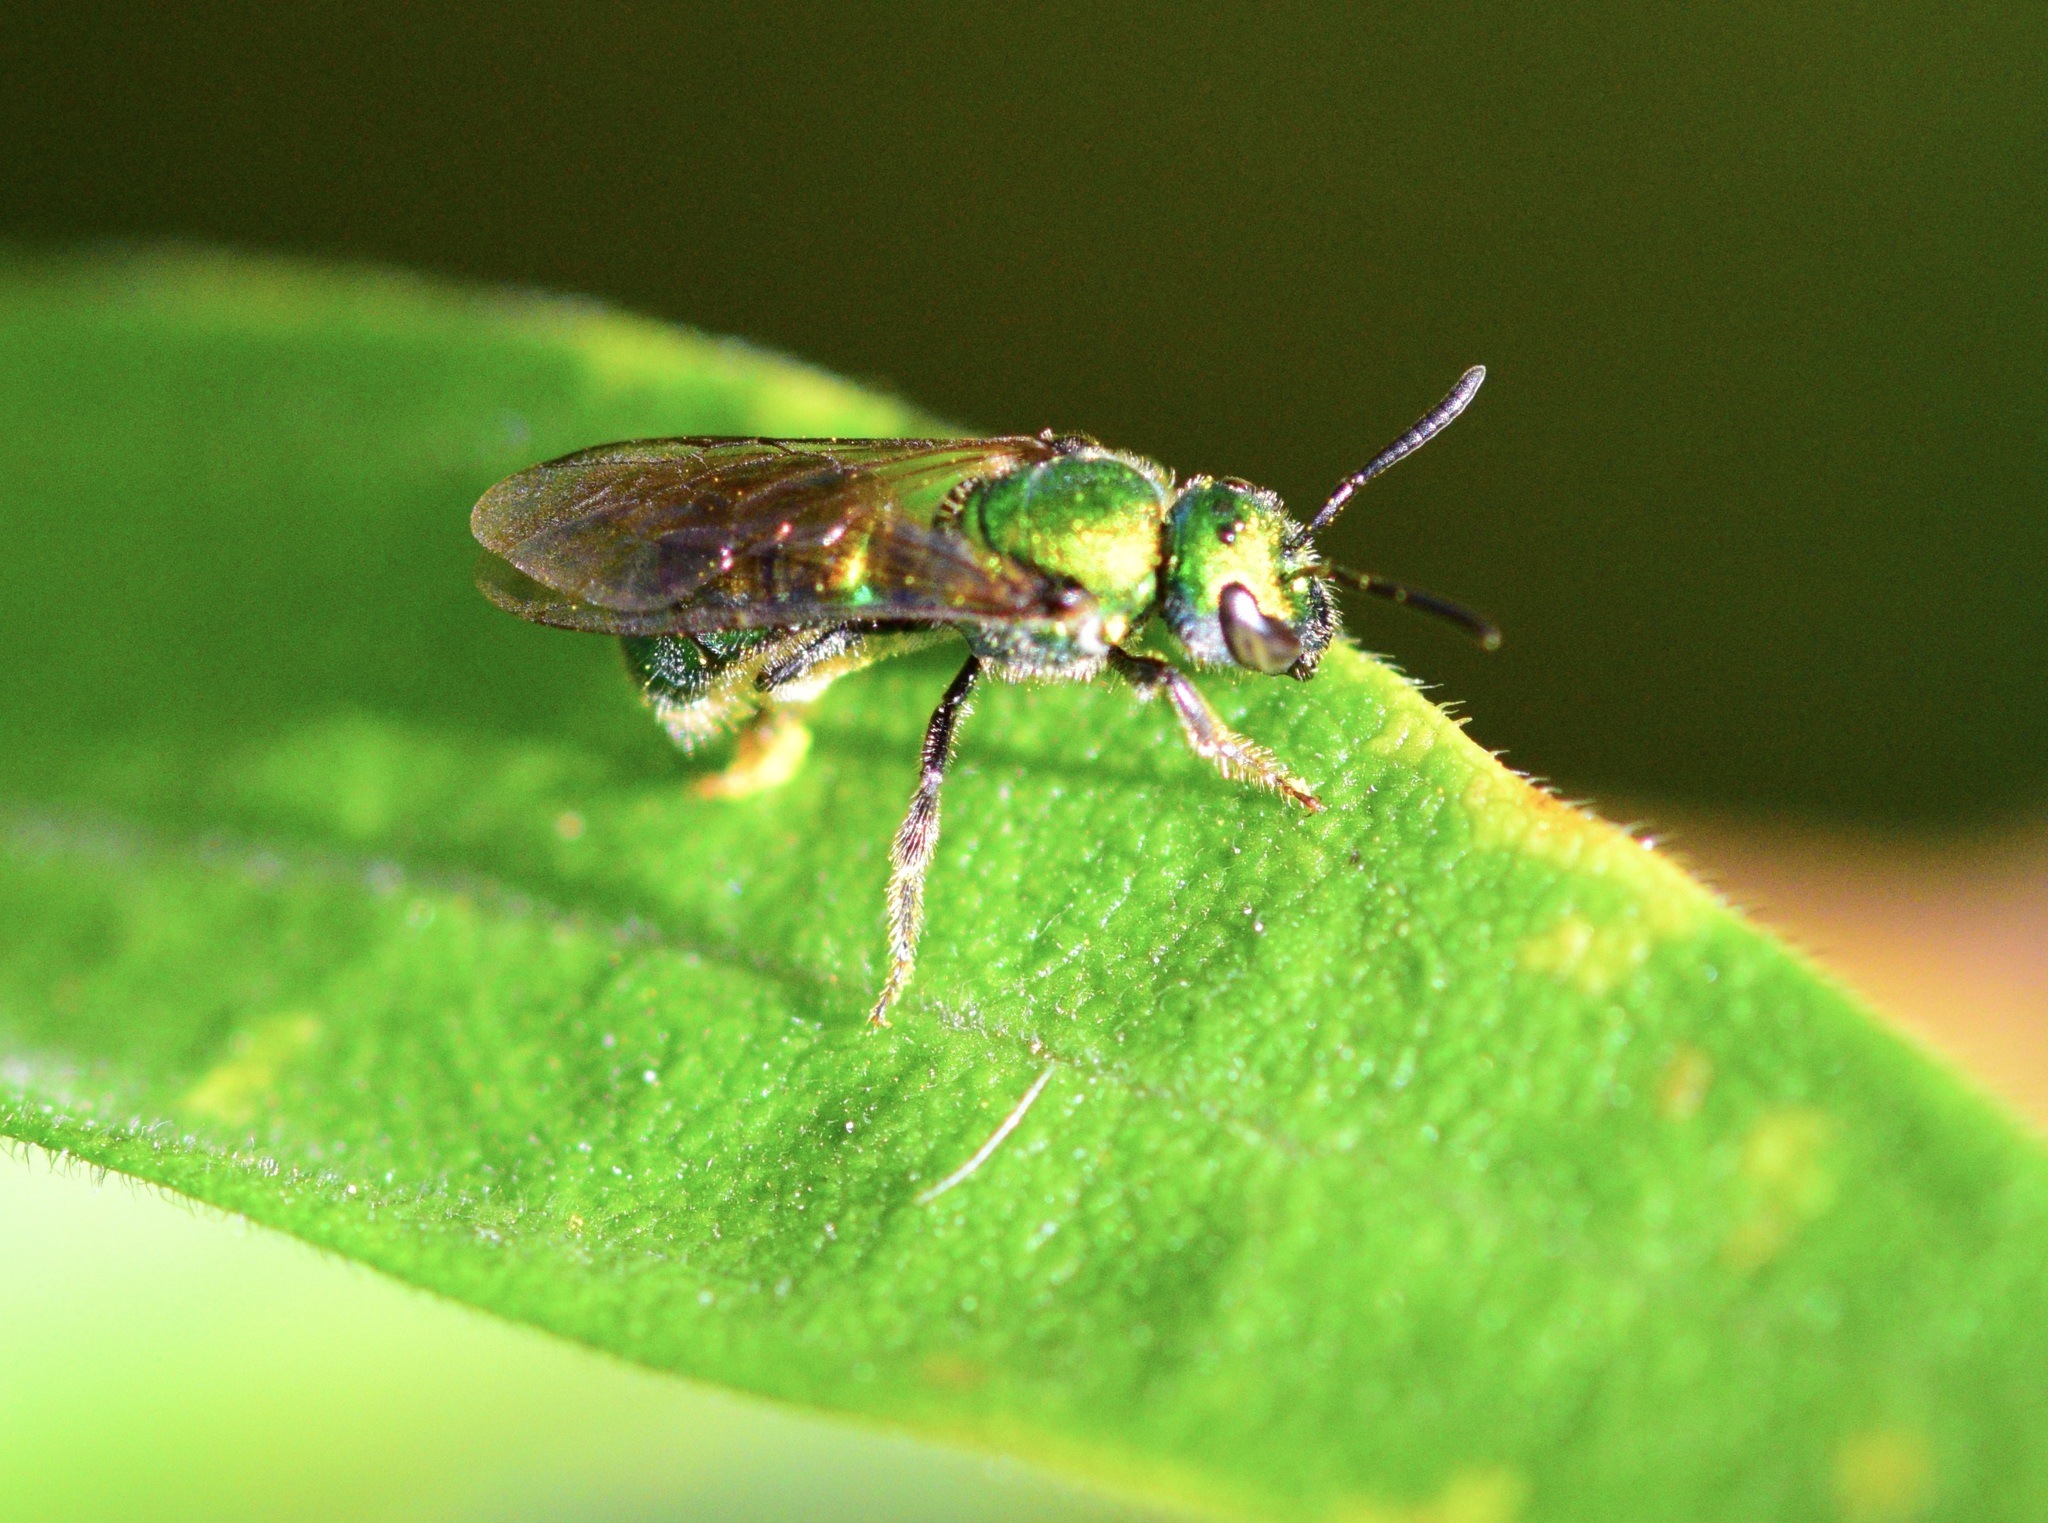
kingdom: Animalia
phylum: Arthropoda
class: Insecta
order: Hymenoptera
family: Halictidae
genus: Augochlora
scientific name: Augochlora pura
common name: Pure green sweat bee
